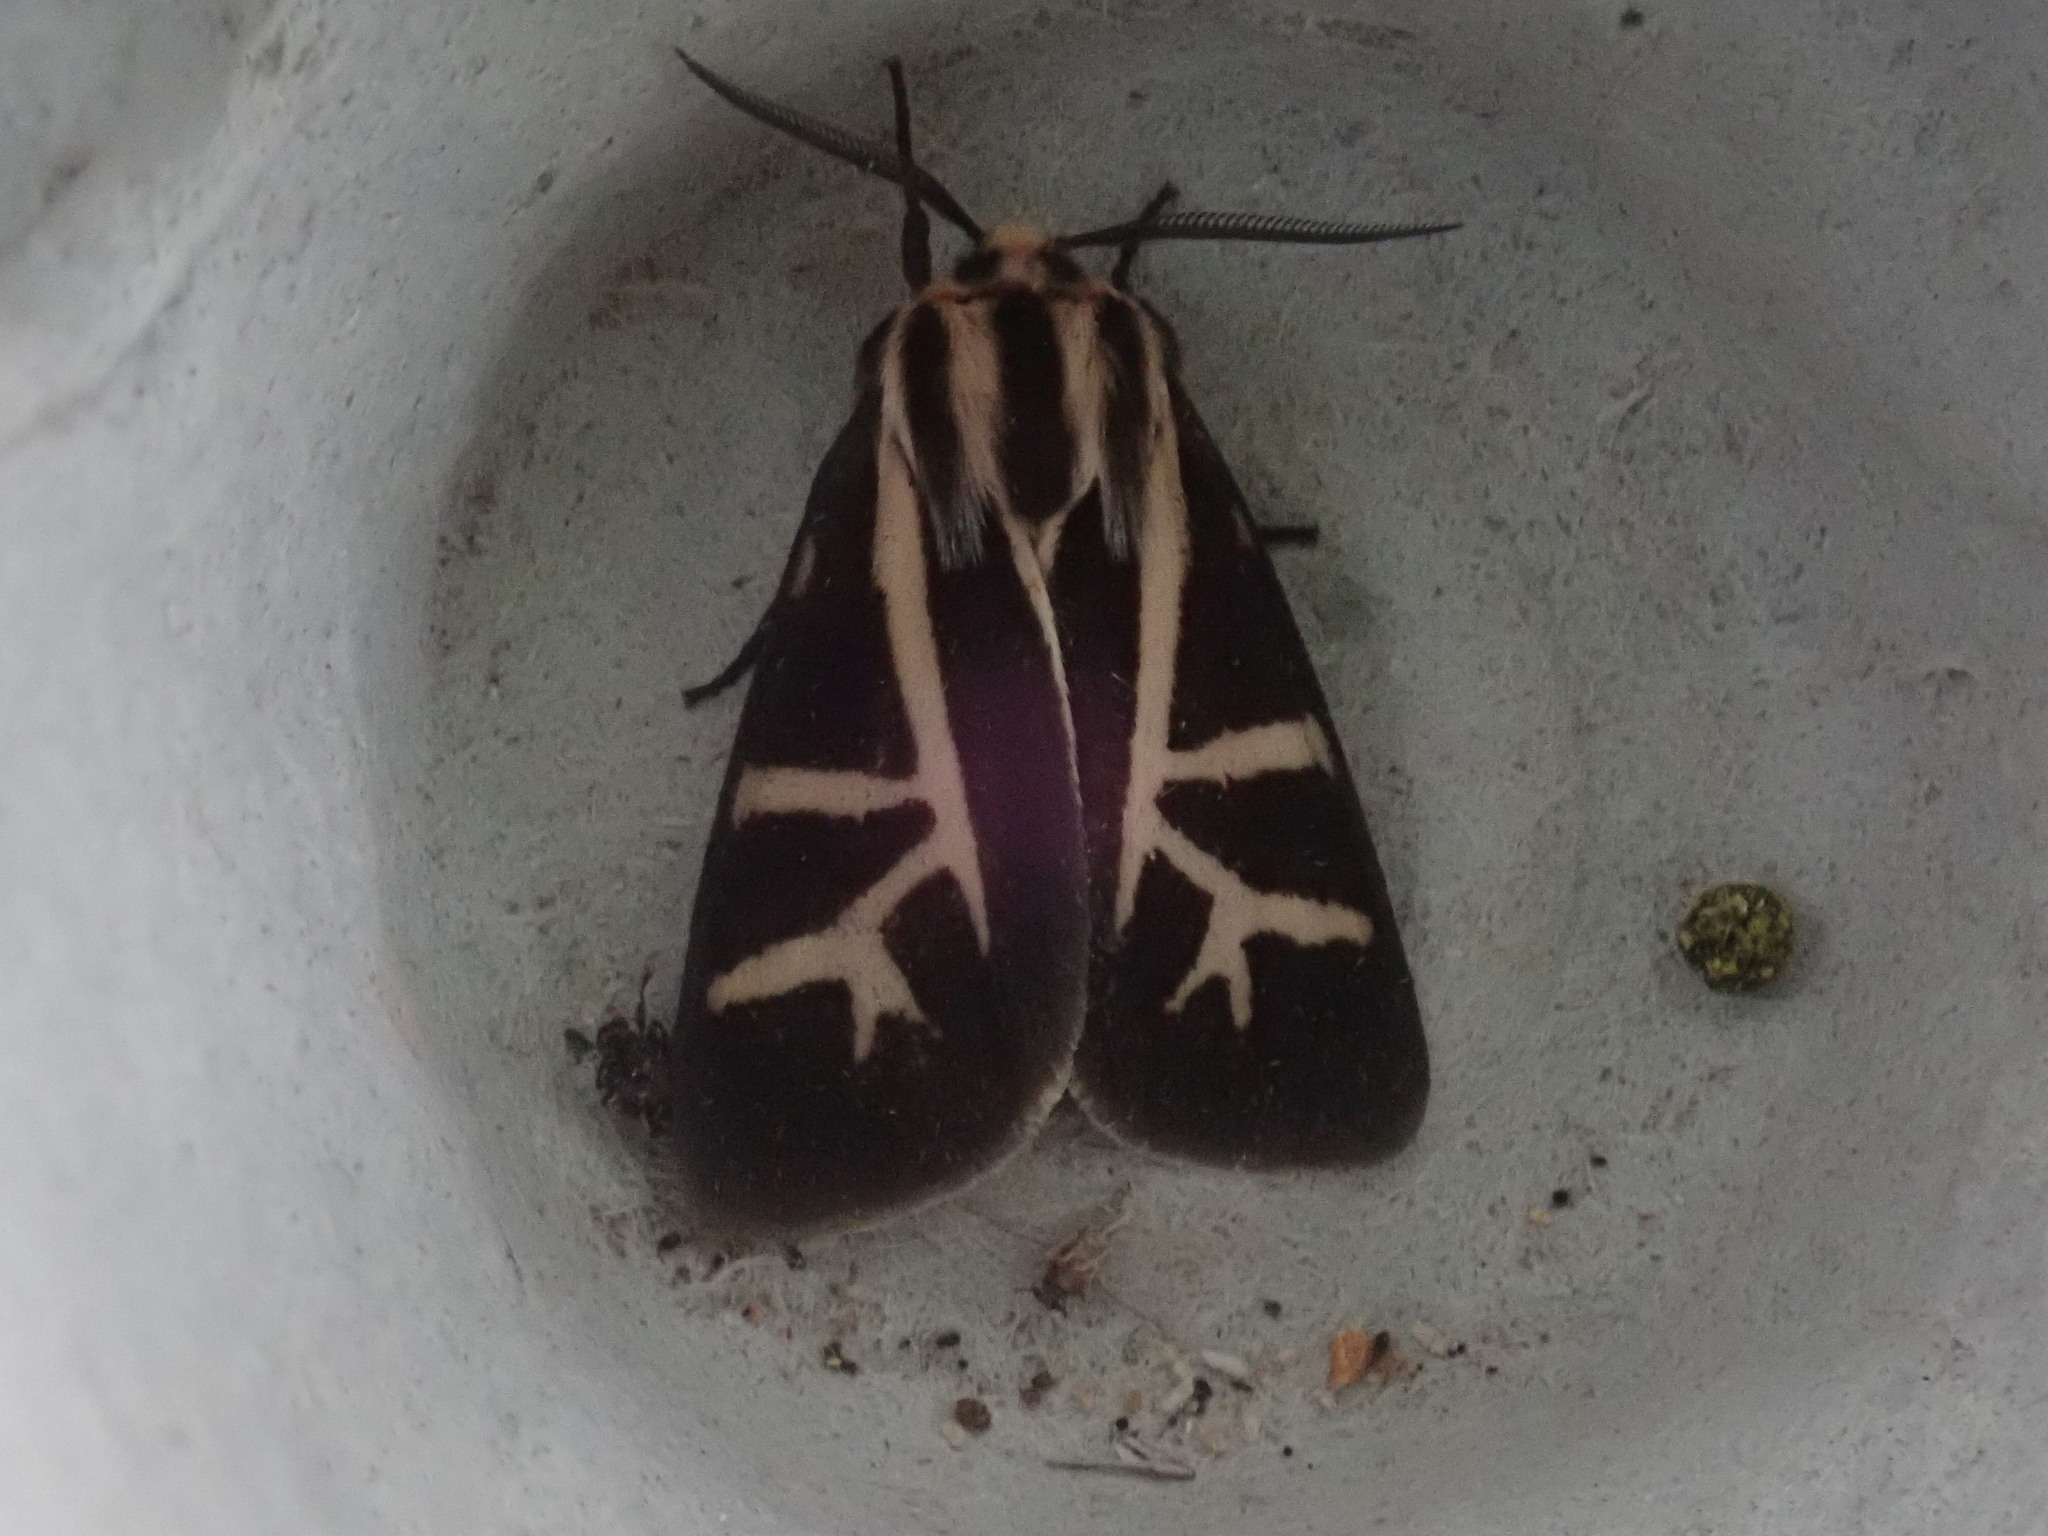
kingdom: Animalia
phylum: Arthropoda
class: Insecta
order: Lepidoptera
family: Erebidae
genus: Apantesis
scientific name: Apantesis
